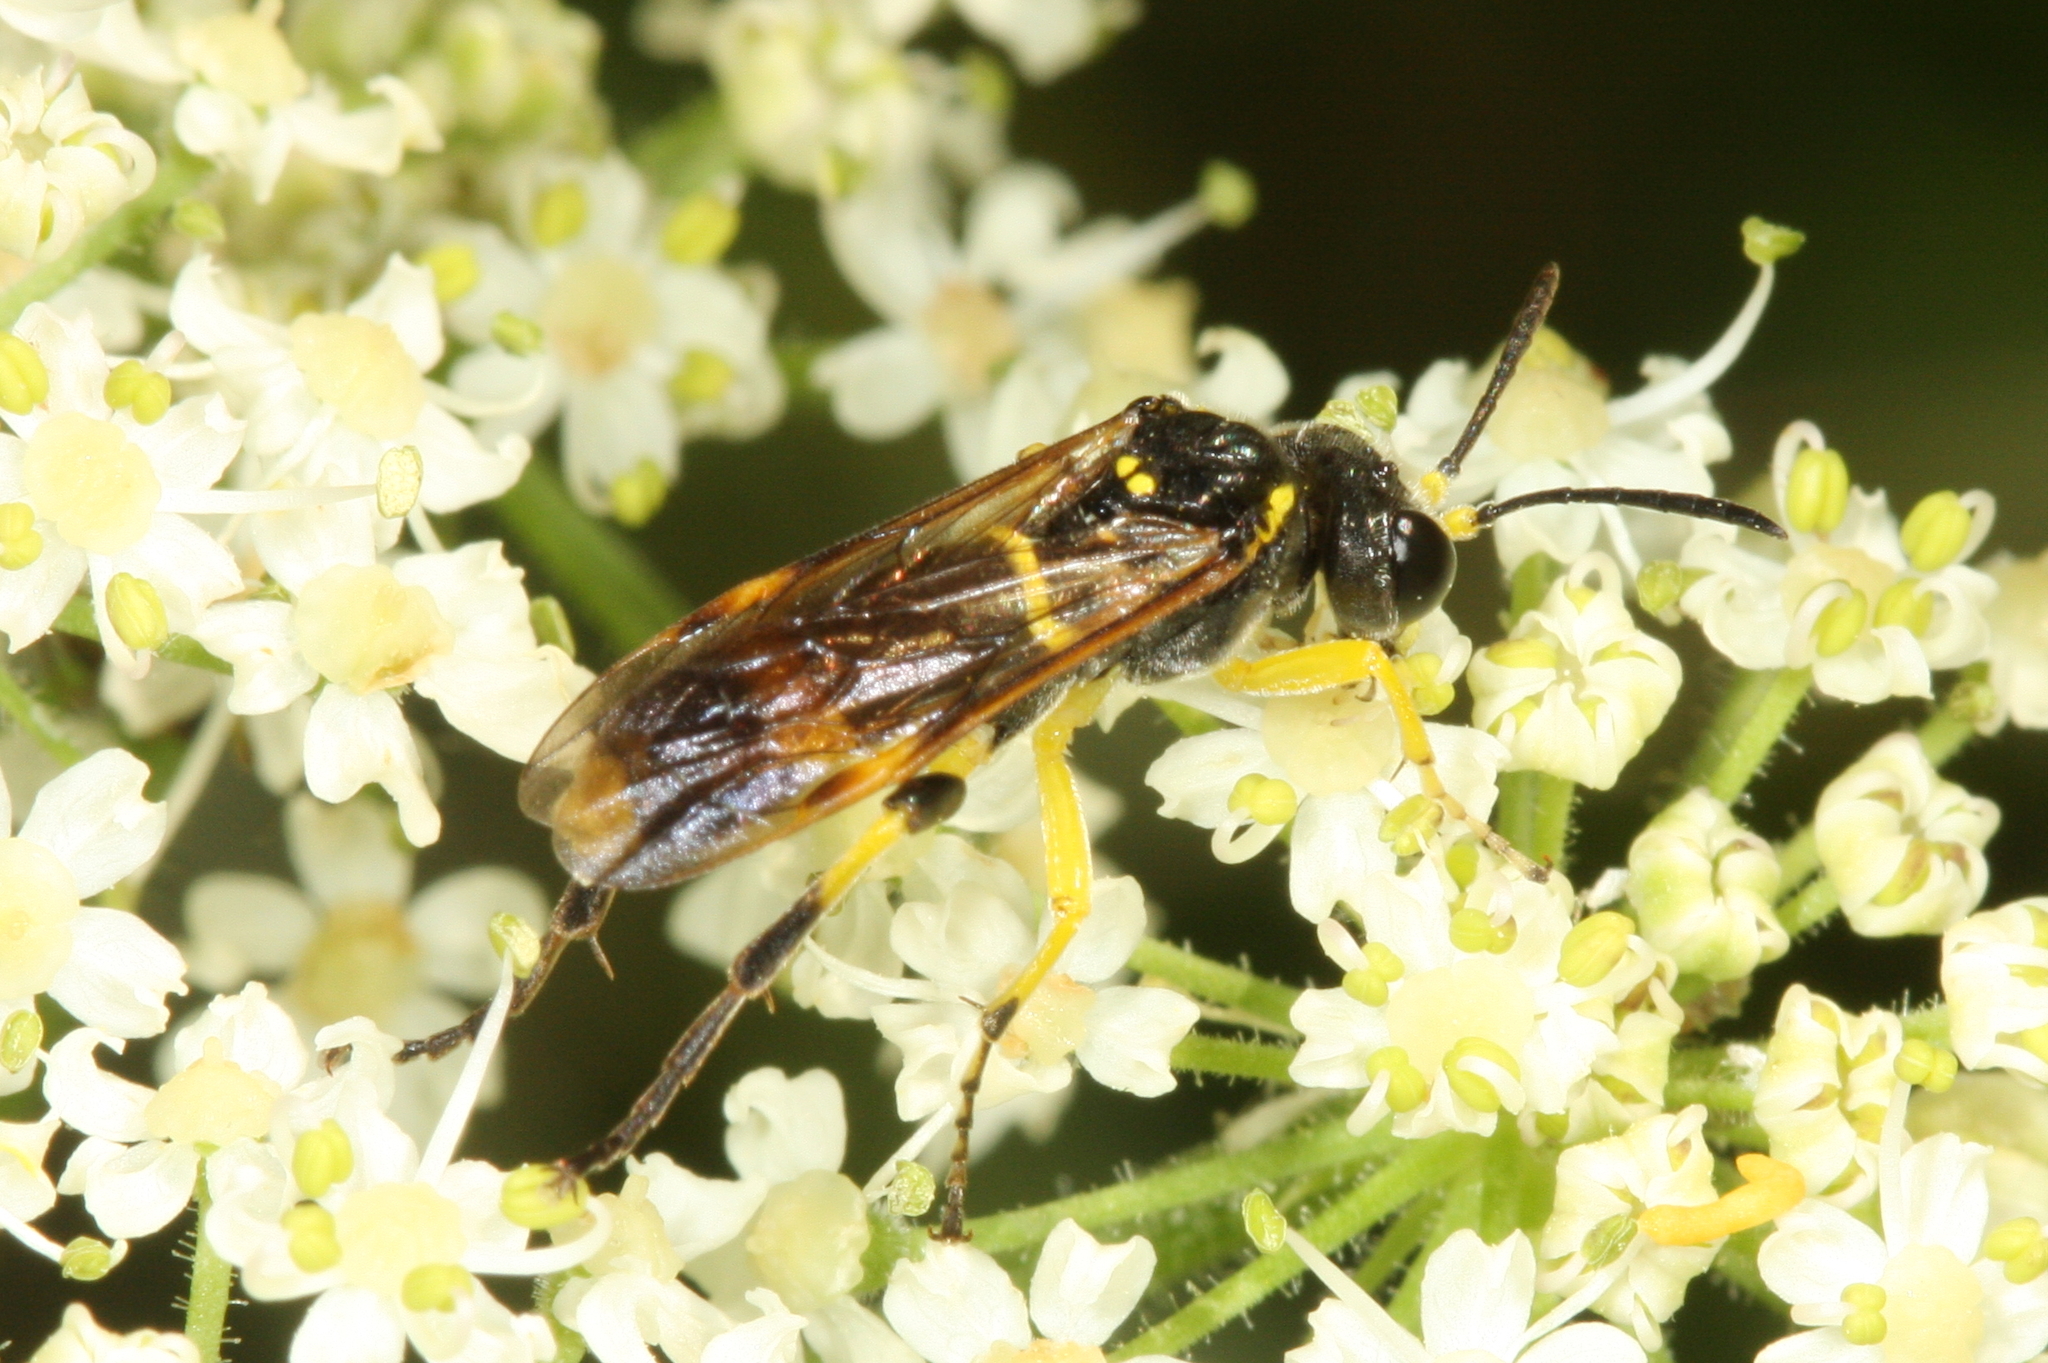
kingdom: Animalia
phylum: Arthropoda
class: Insecta
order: Hymenoptera
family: Tenthredinidae
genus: Tenthredo
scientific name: Tenthredo amoena
